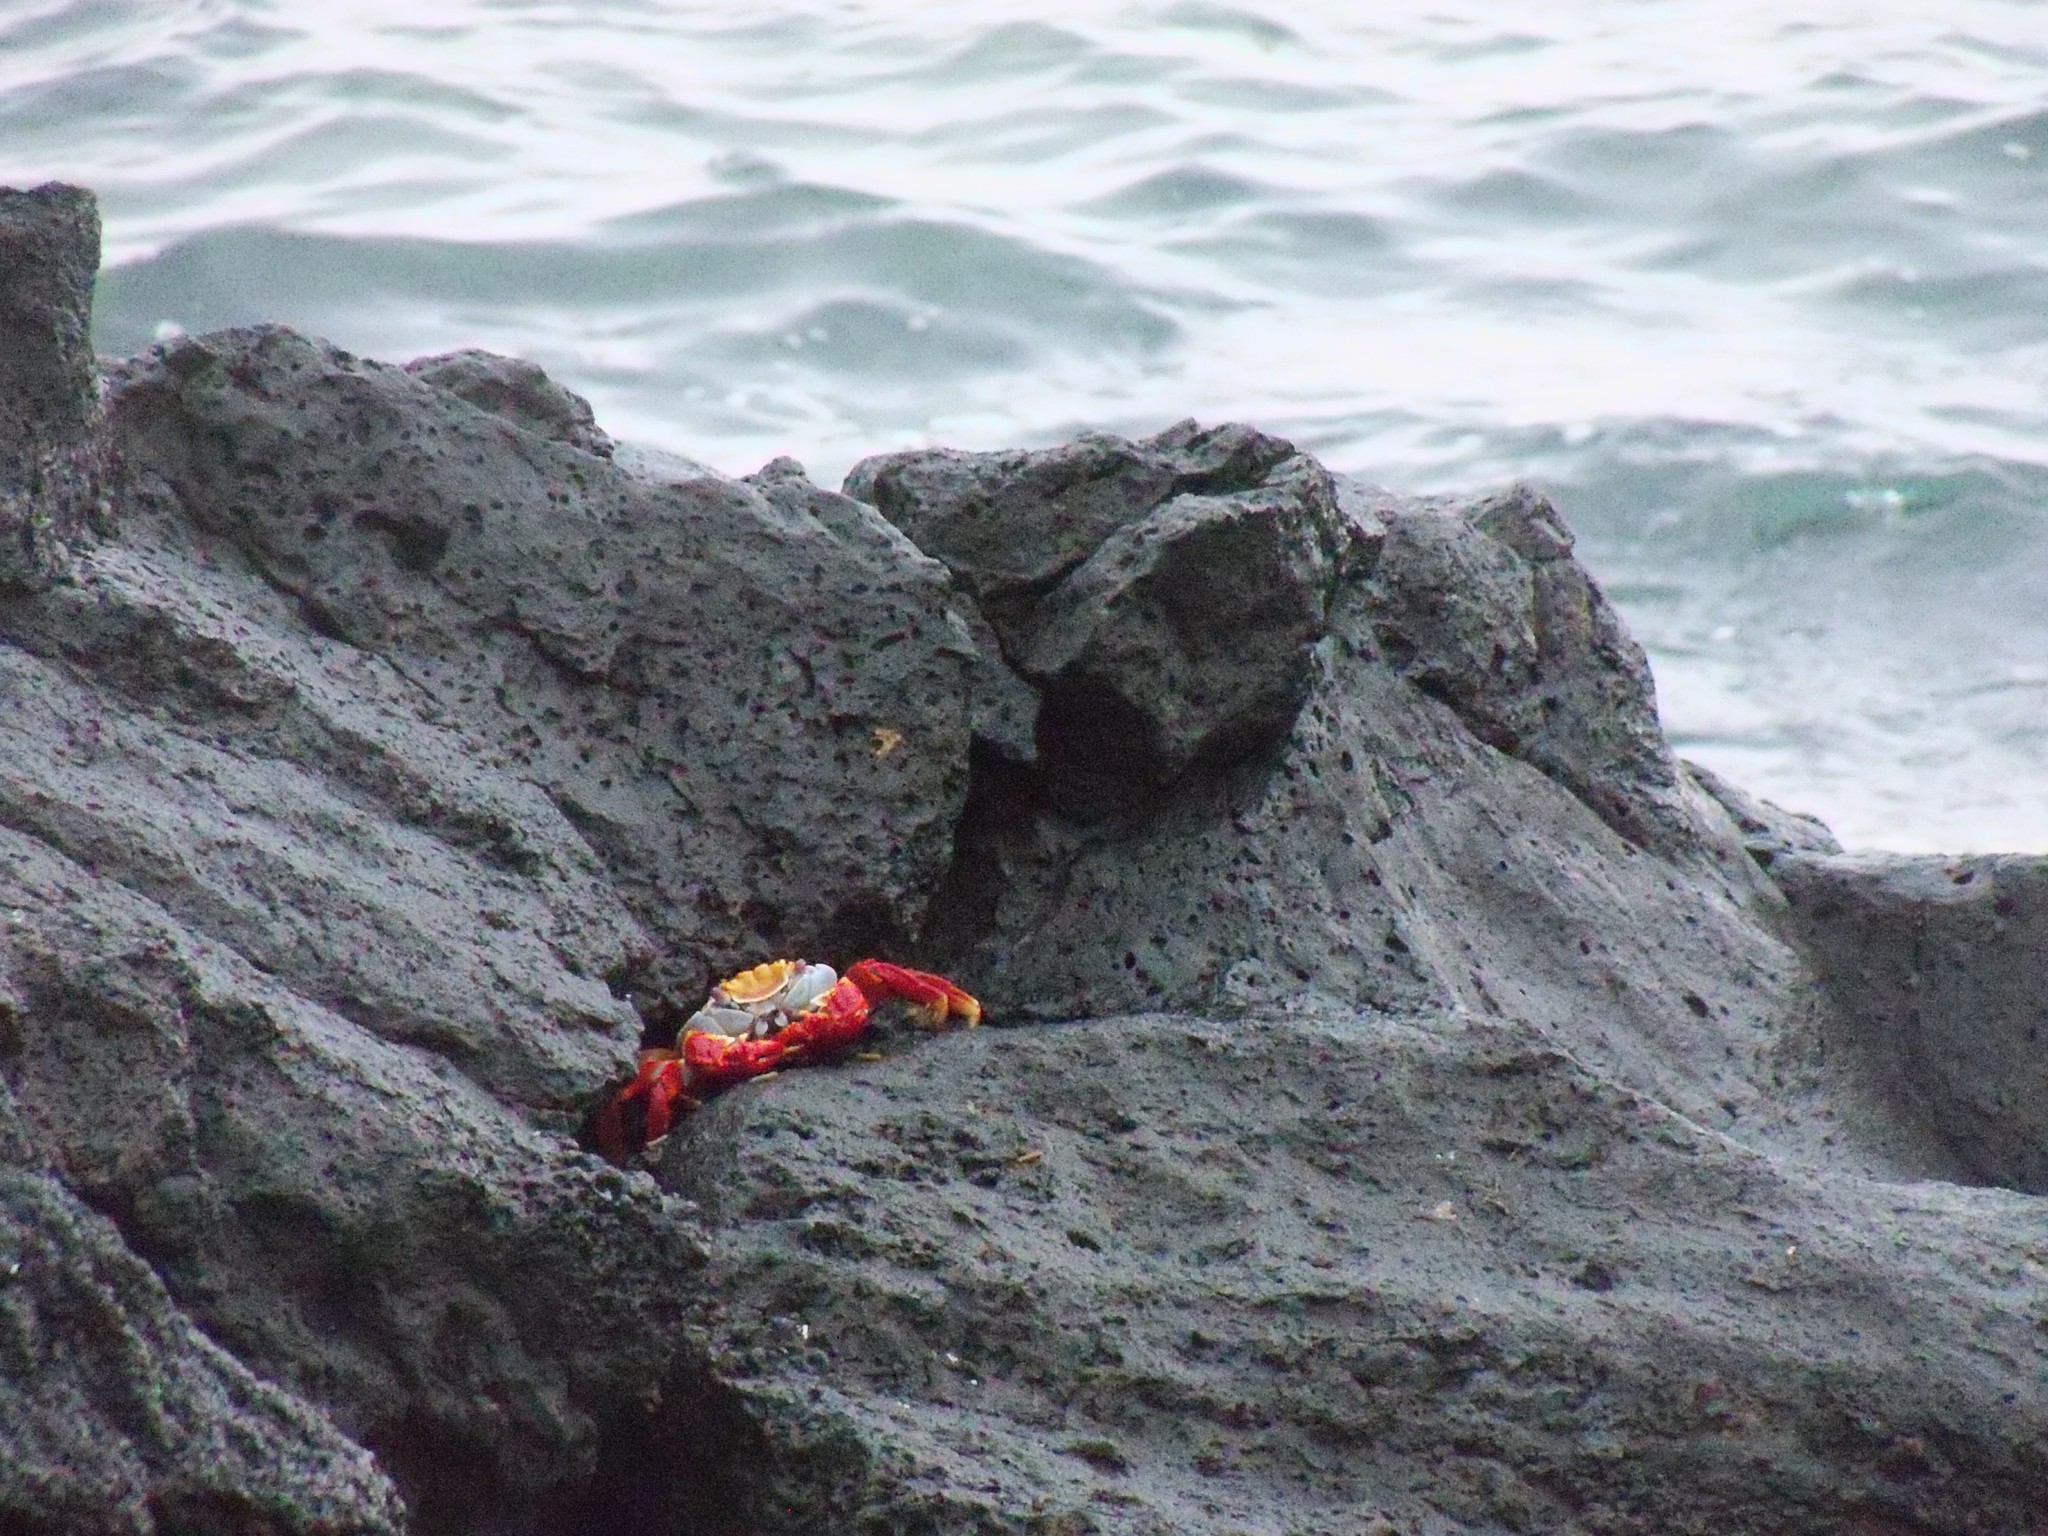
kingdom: Animalia
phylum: Arthropoda
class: Malacostraca
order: Decapoda
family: Grapsidae
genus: Grapsus
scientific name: Grapsus grapsus
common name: Sally lightfoot
